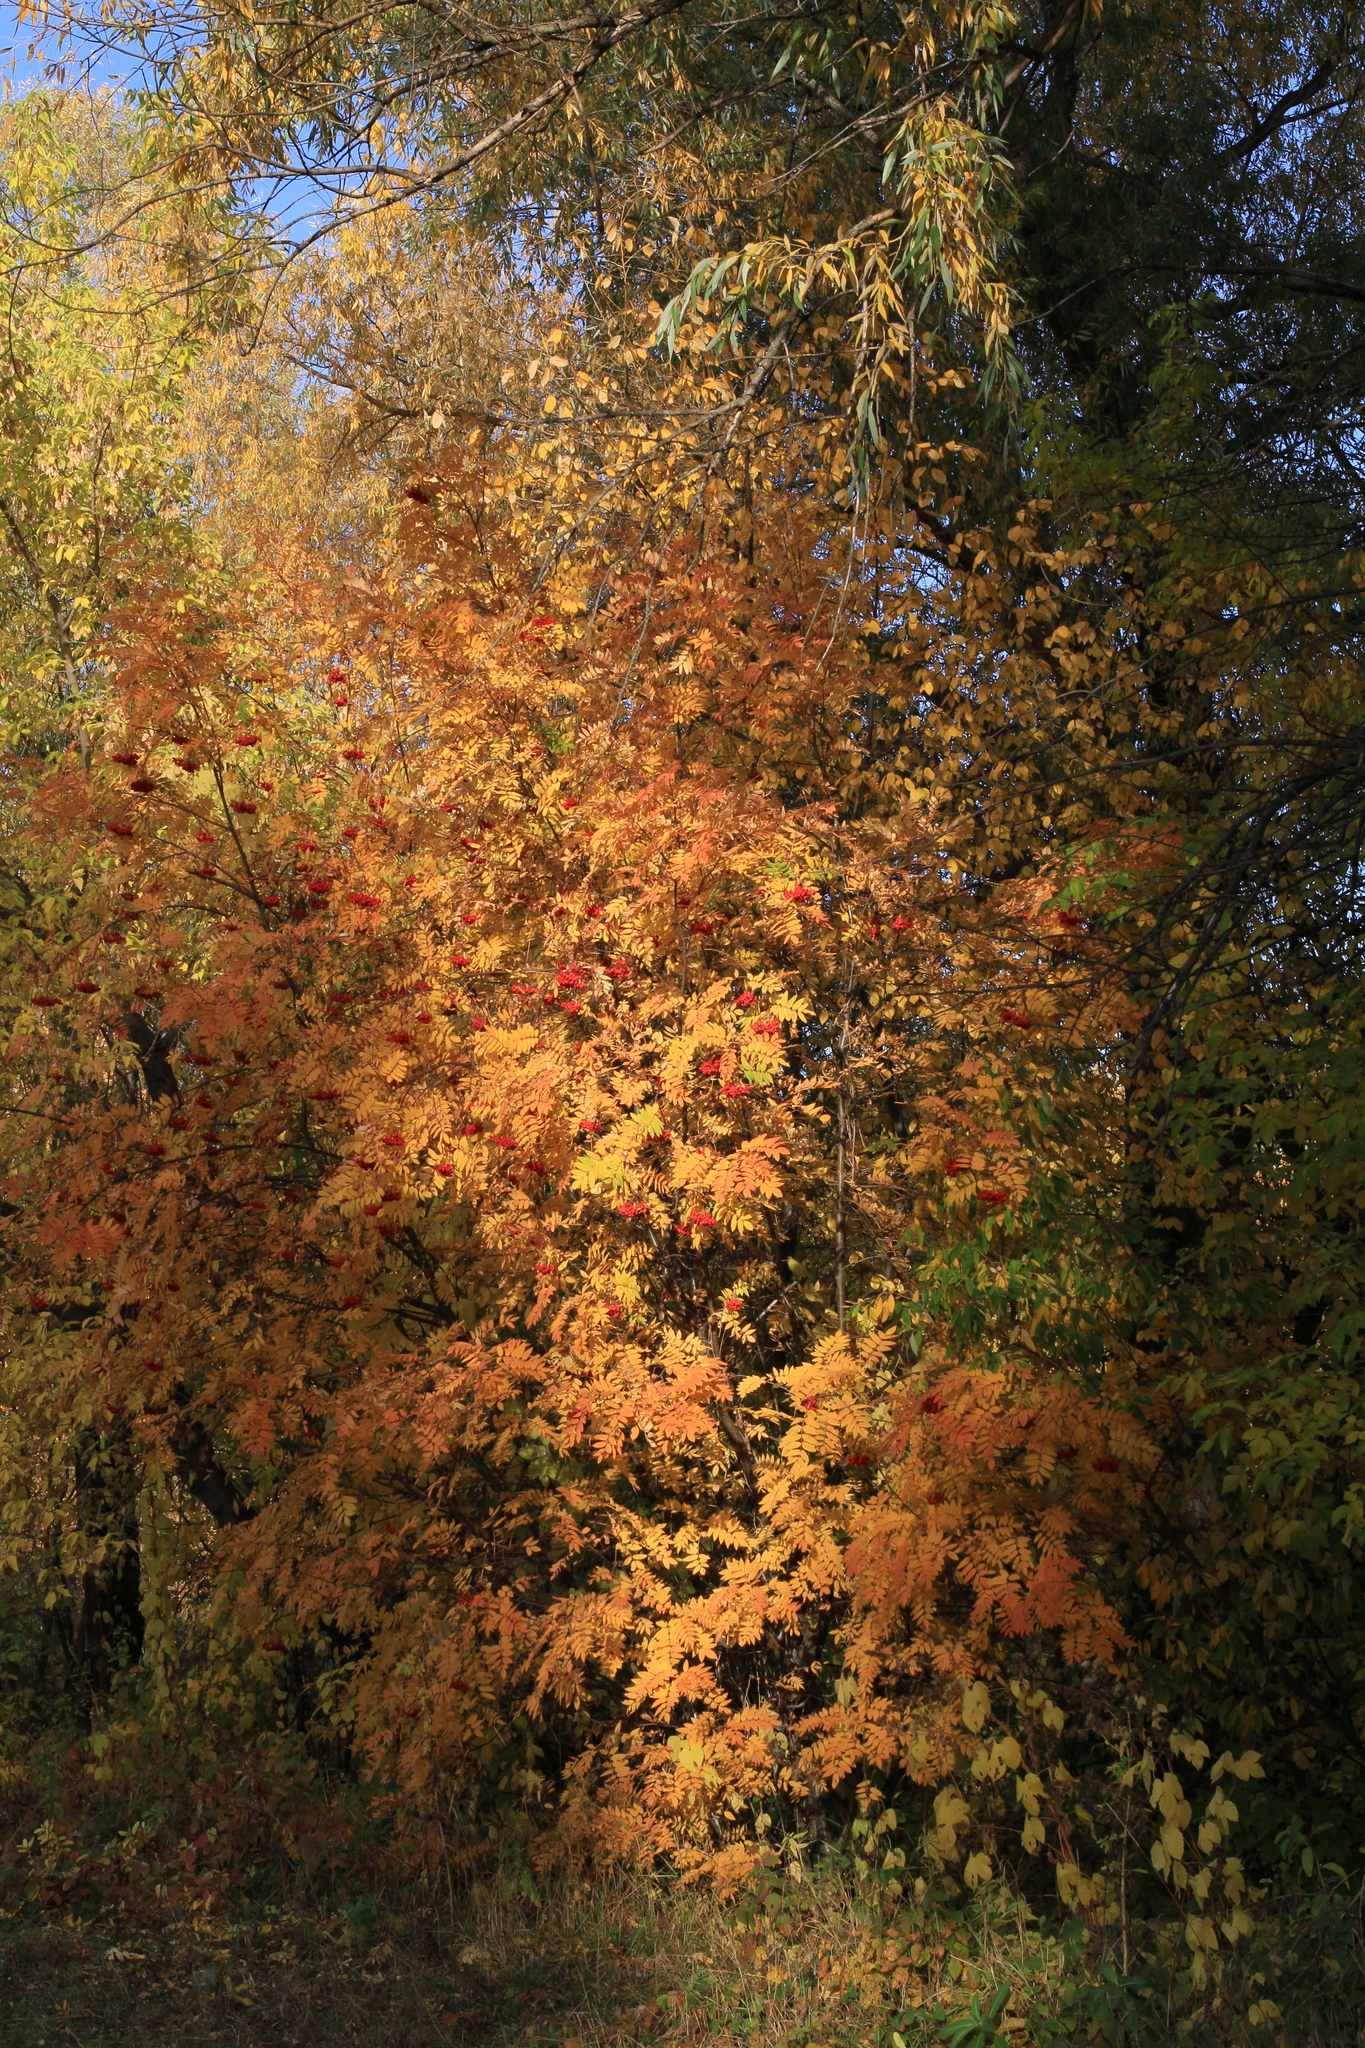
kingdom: Plantae
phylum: Tracheophyta
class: Magnoliopsida
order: Rosales
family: Rosaceae
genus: Sorbus
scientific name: Sorbus aucuparia
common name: Rowan
